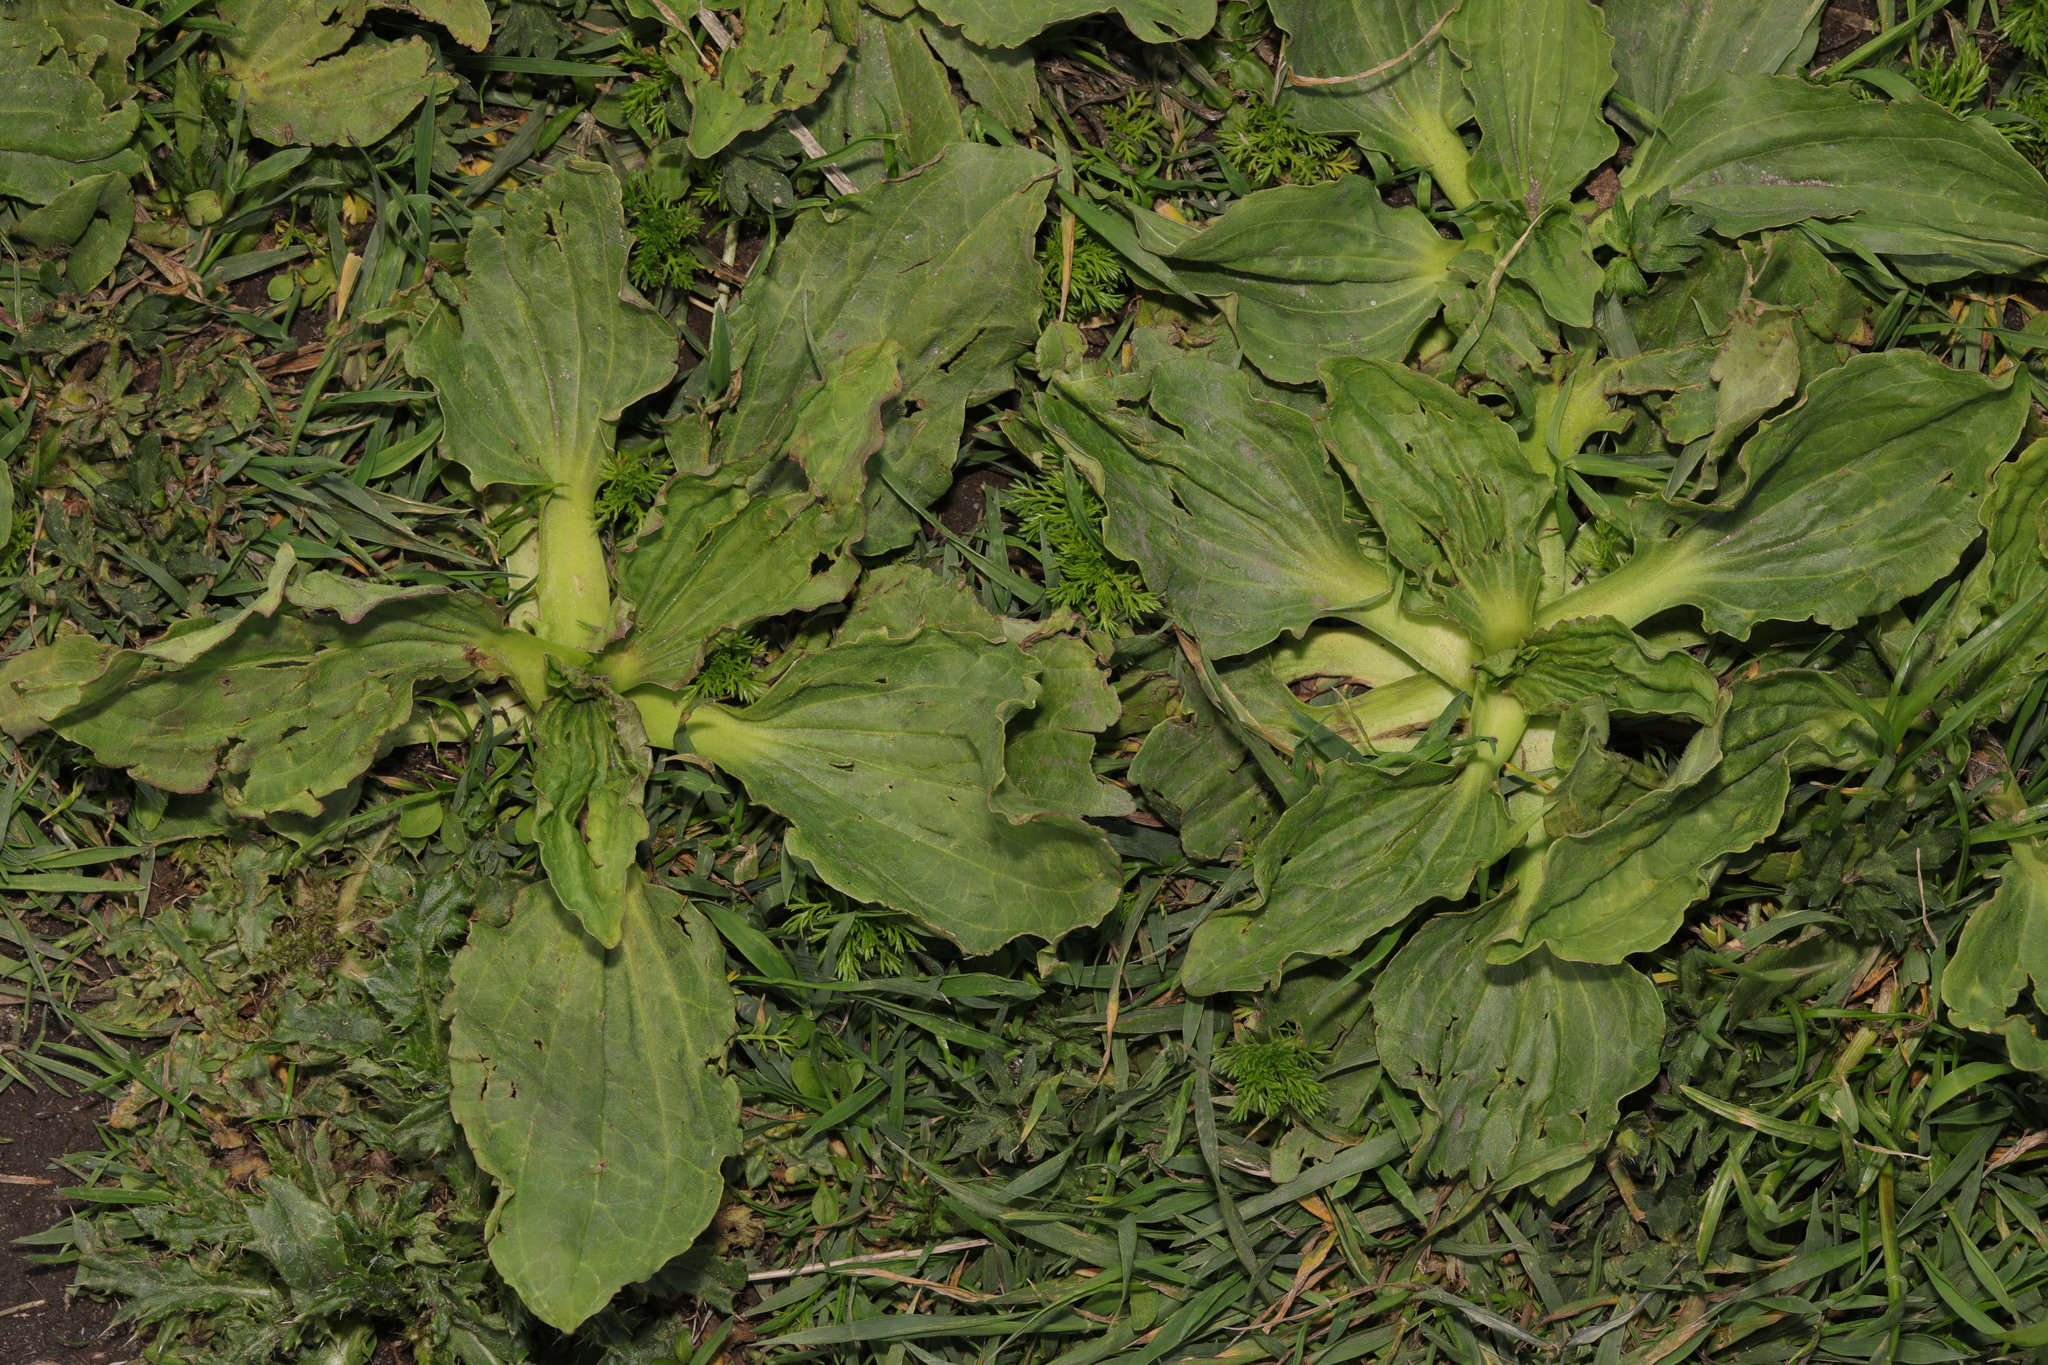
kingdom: Plantae
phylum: Tracheophyta
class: Magnoliopsida
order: Lamiales
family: Plantaginaceae
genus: Plantago
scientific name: Plantago major
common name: Common plantain
